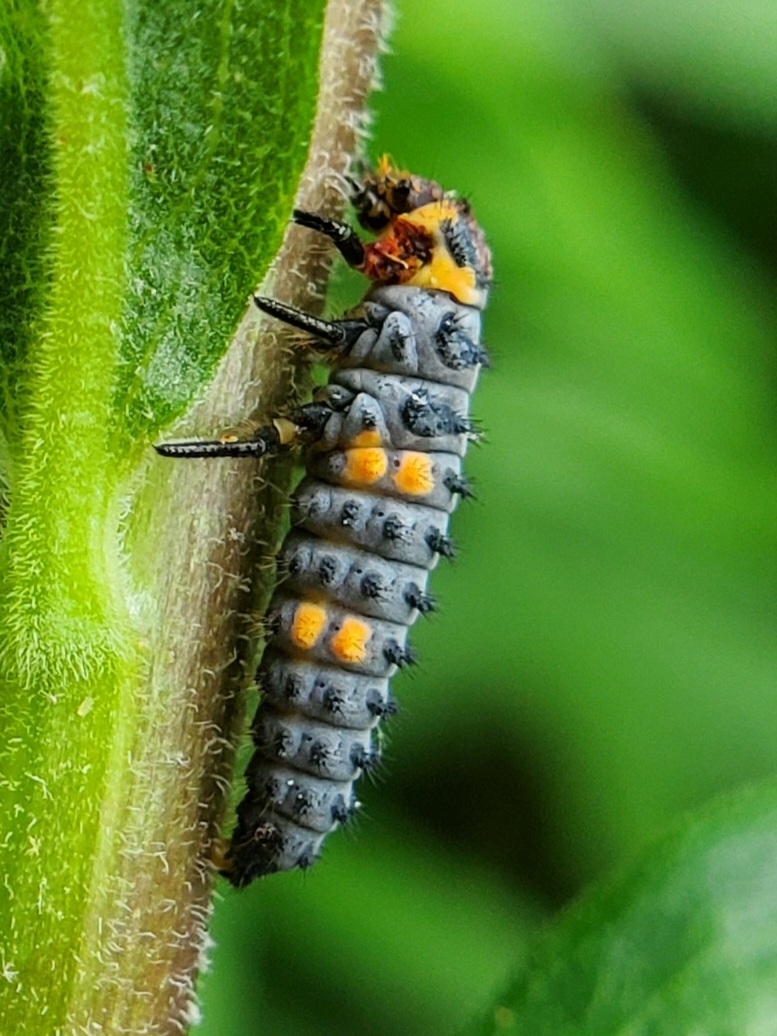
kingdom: Animalia
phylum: Arthropoda
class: Insecta
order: Coleoptera
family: Coccinellidae
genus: Coccinella
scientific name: Coccinella septempunctata
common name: Sevenspotted lady beetle
